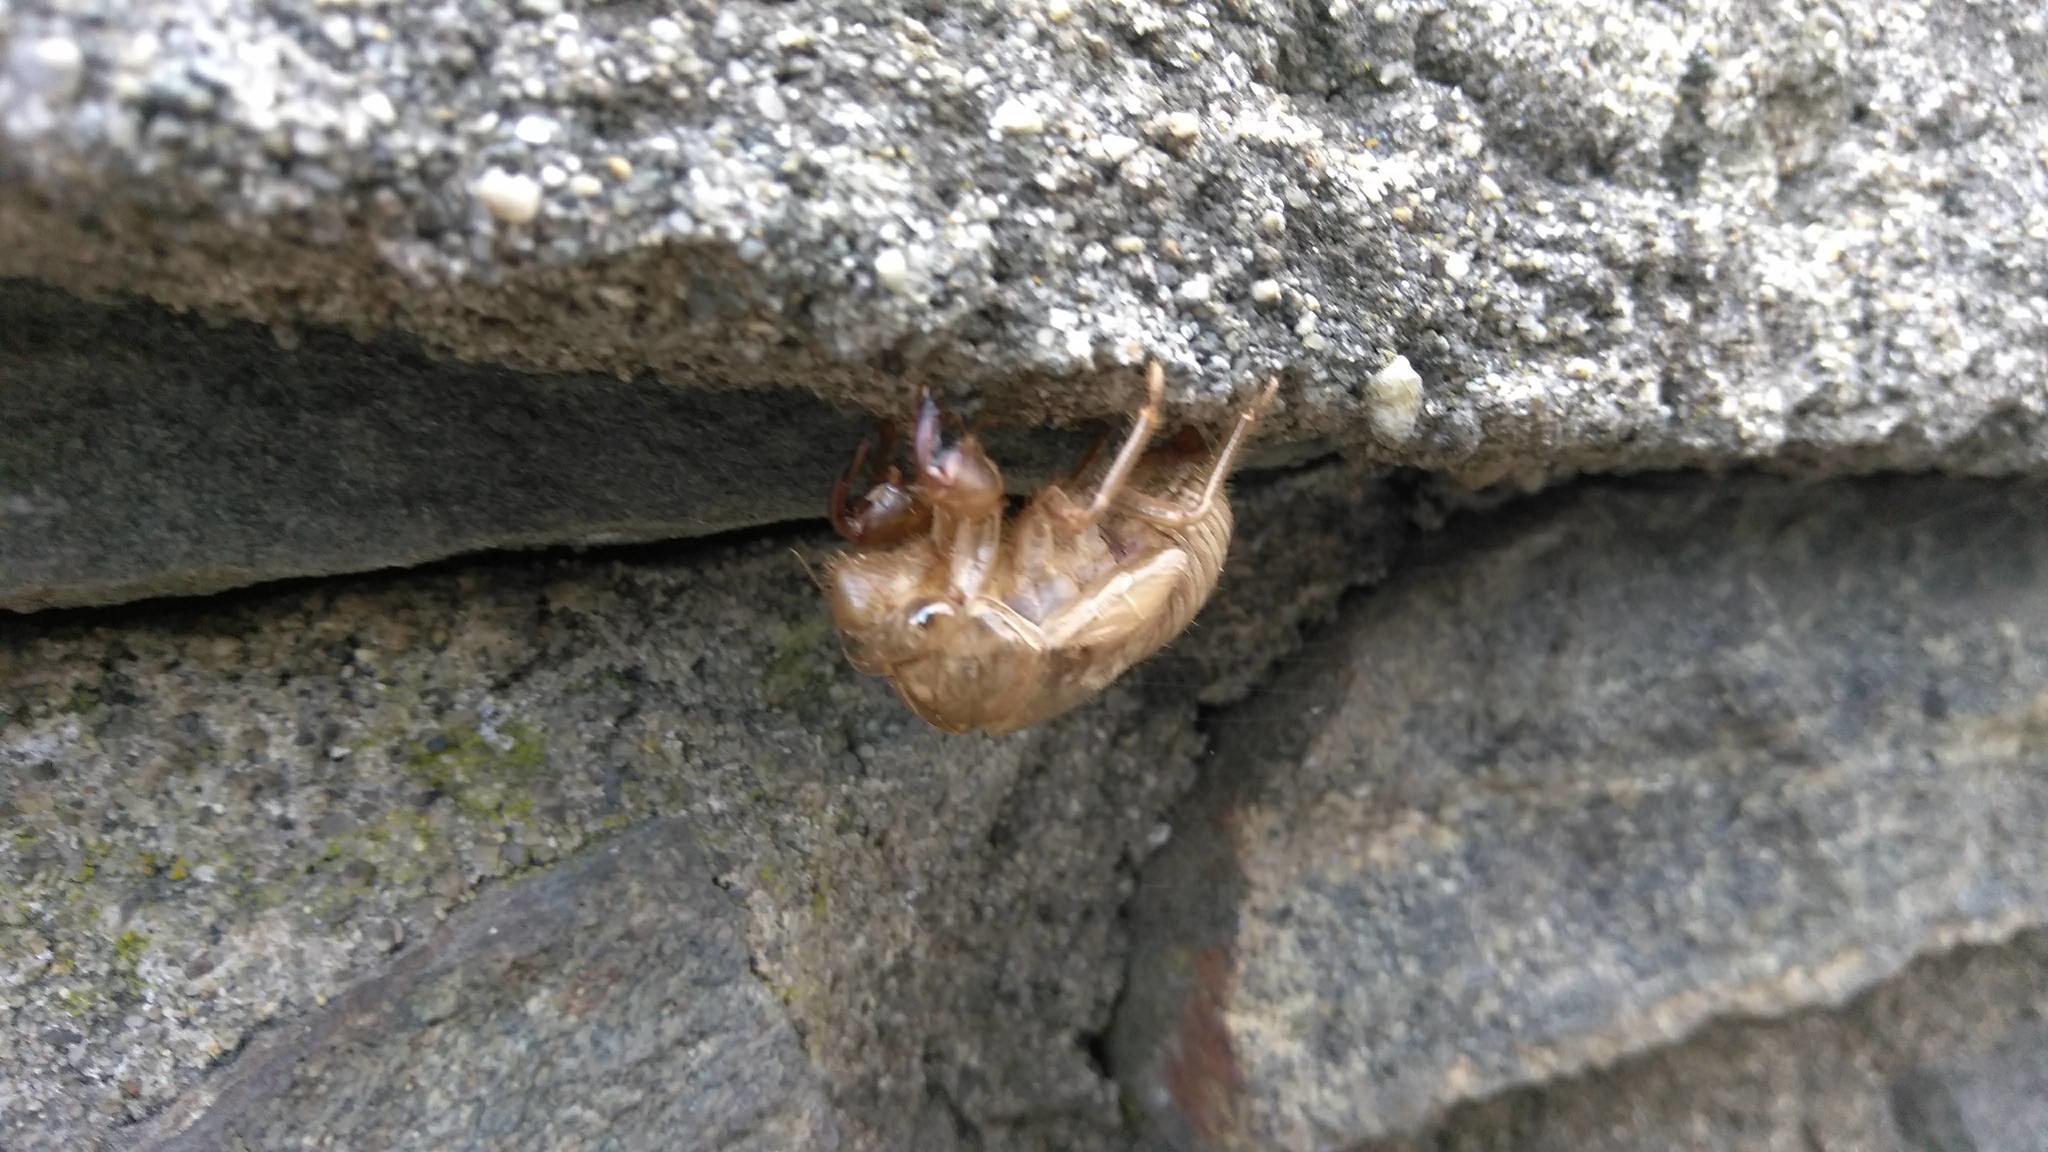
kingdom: Animalia
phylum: Arthropoda
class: Insecta
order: Hemiptera
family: Cicadidae
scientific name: Cicadidae
